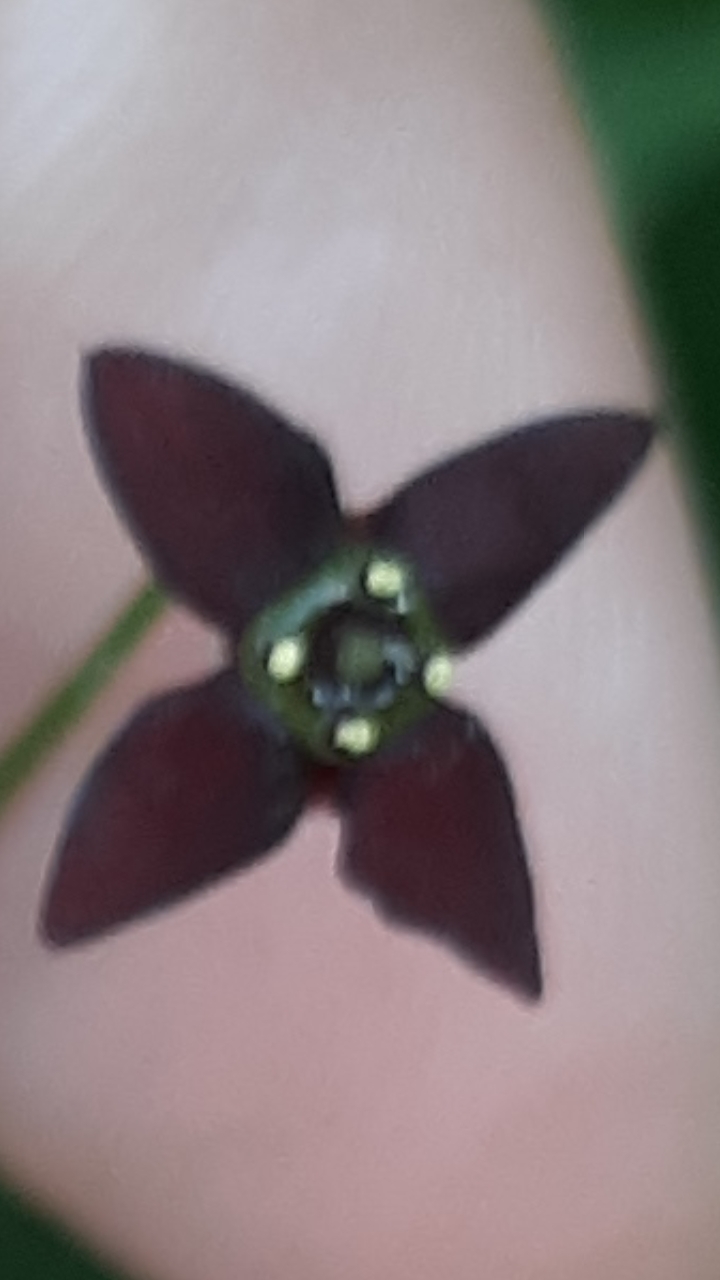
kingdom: Plantae
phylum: Tracheophyta
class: Magnoliopsida
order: Celastrales
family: Celastraceae
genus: Euonymus
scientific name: Euonymus atropurpureus
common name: Eastern wahoo
